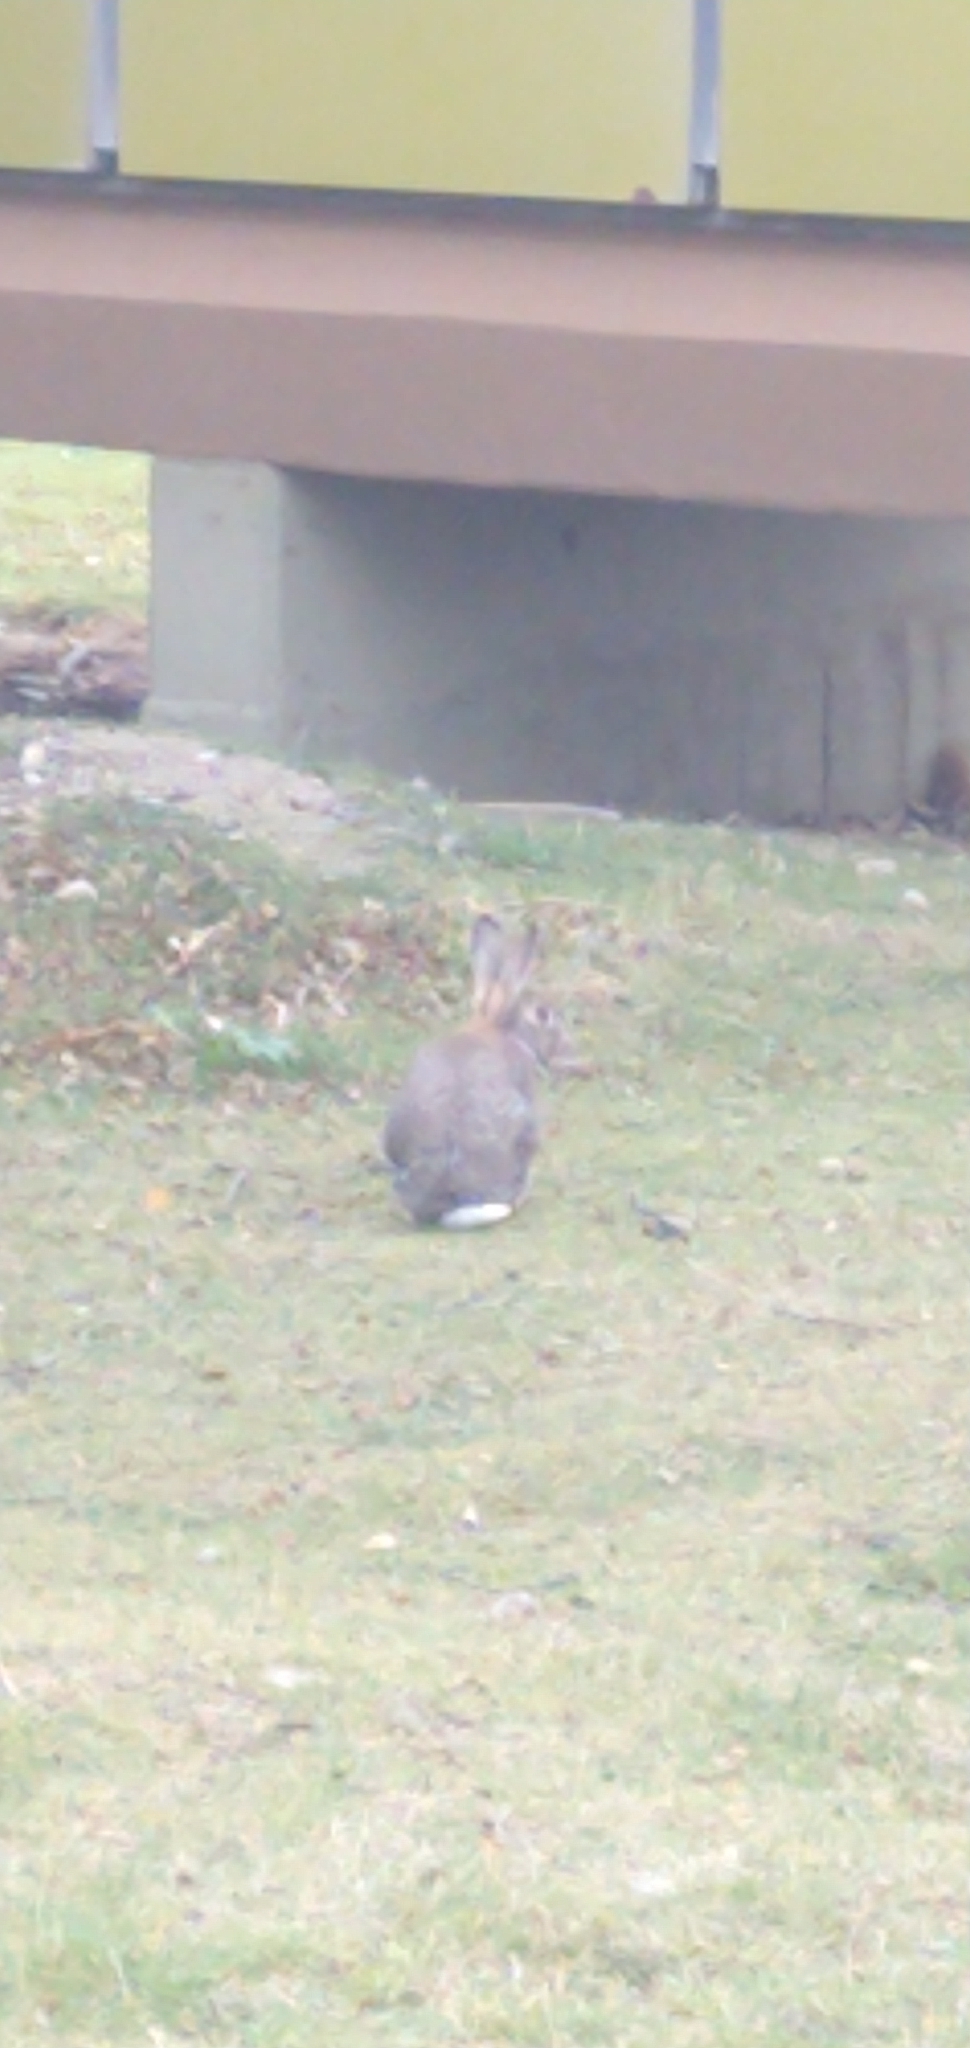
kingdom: Animalia
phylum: Chordata
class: Mammalia
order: Lagomorpha
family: Leporidae
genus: Oryctolagus
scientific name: Oryctolagus cuniculus
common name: European rabbit
